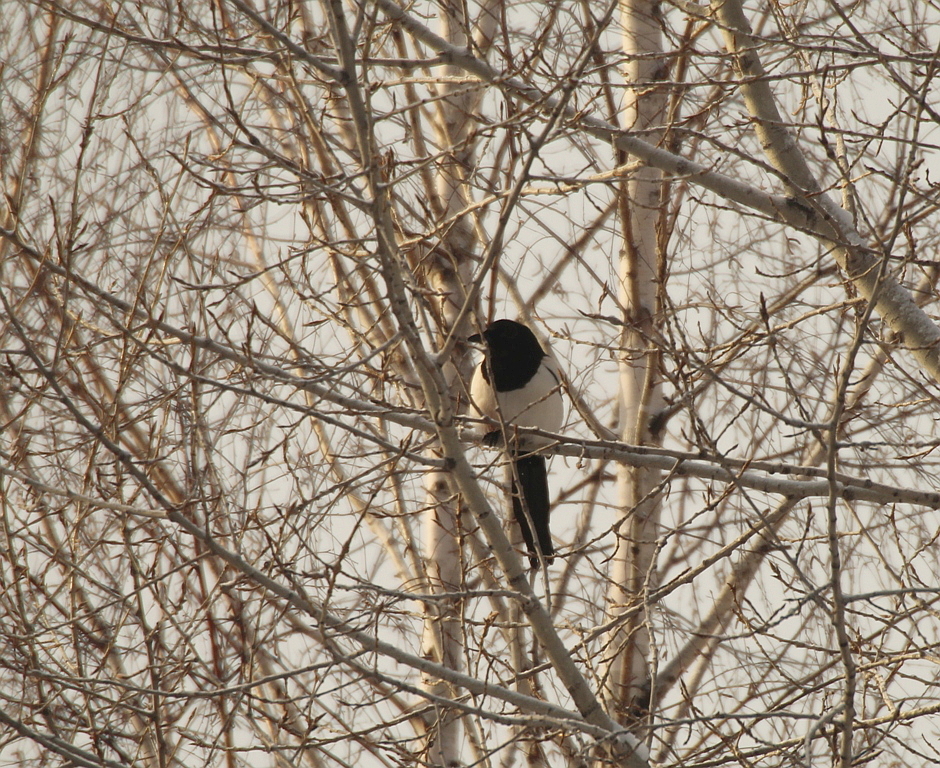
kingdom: Animalia
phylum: Chordata
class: Aves
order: Passeriformes
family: Corvidae
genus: Pica
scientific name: Pica pica
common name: Eurasian magpie
